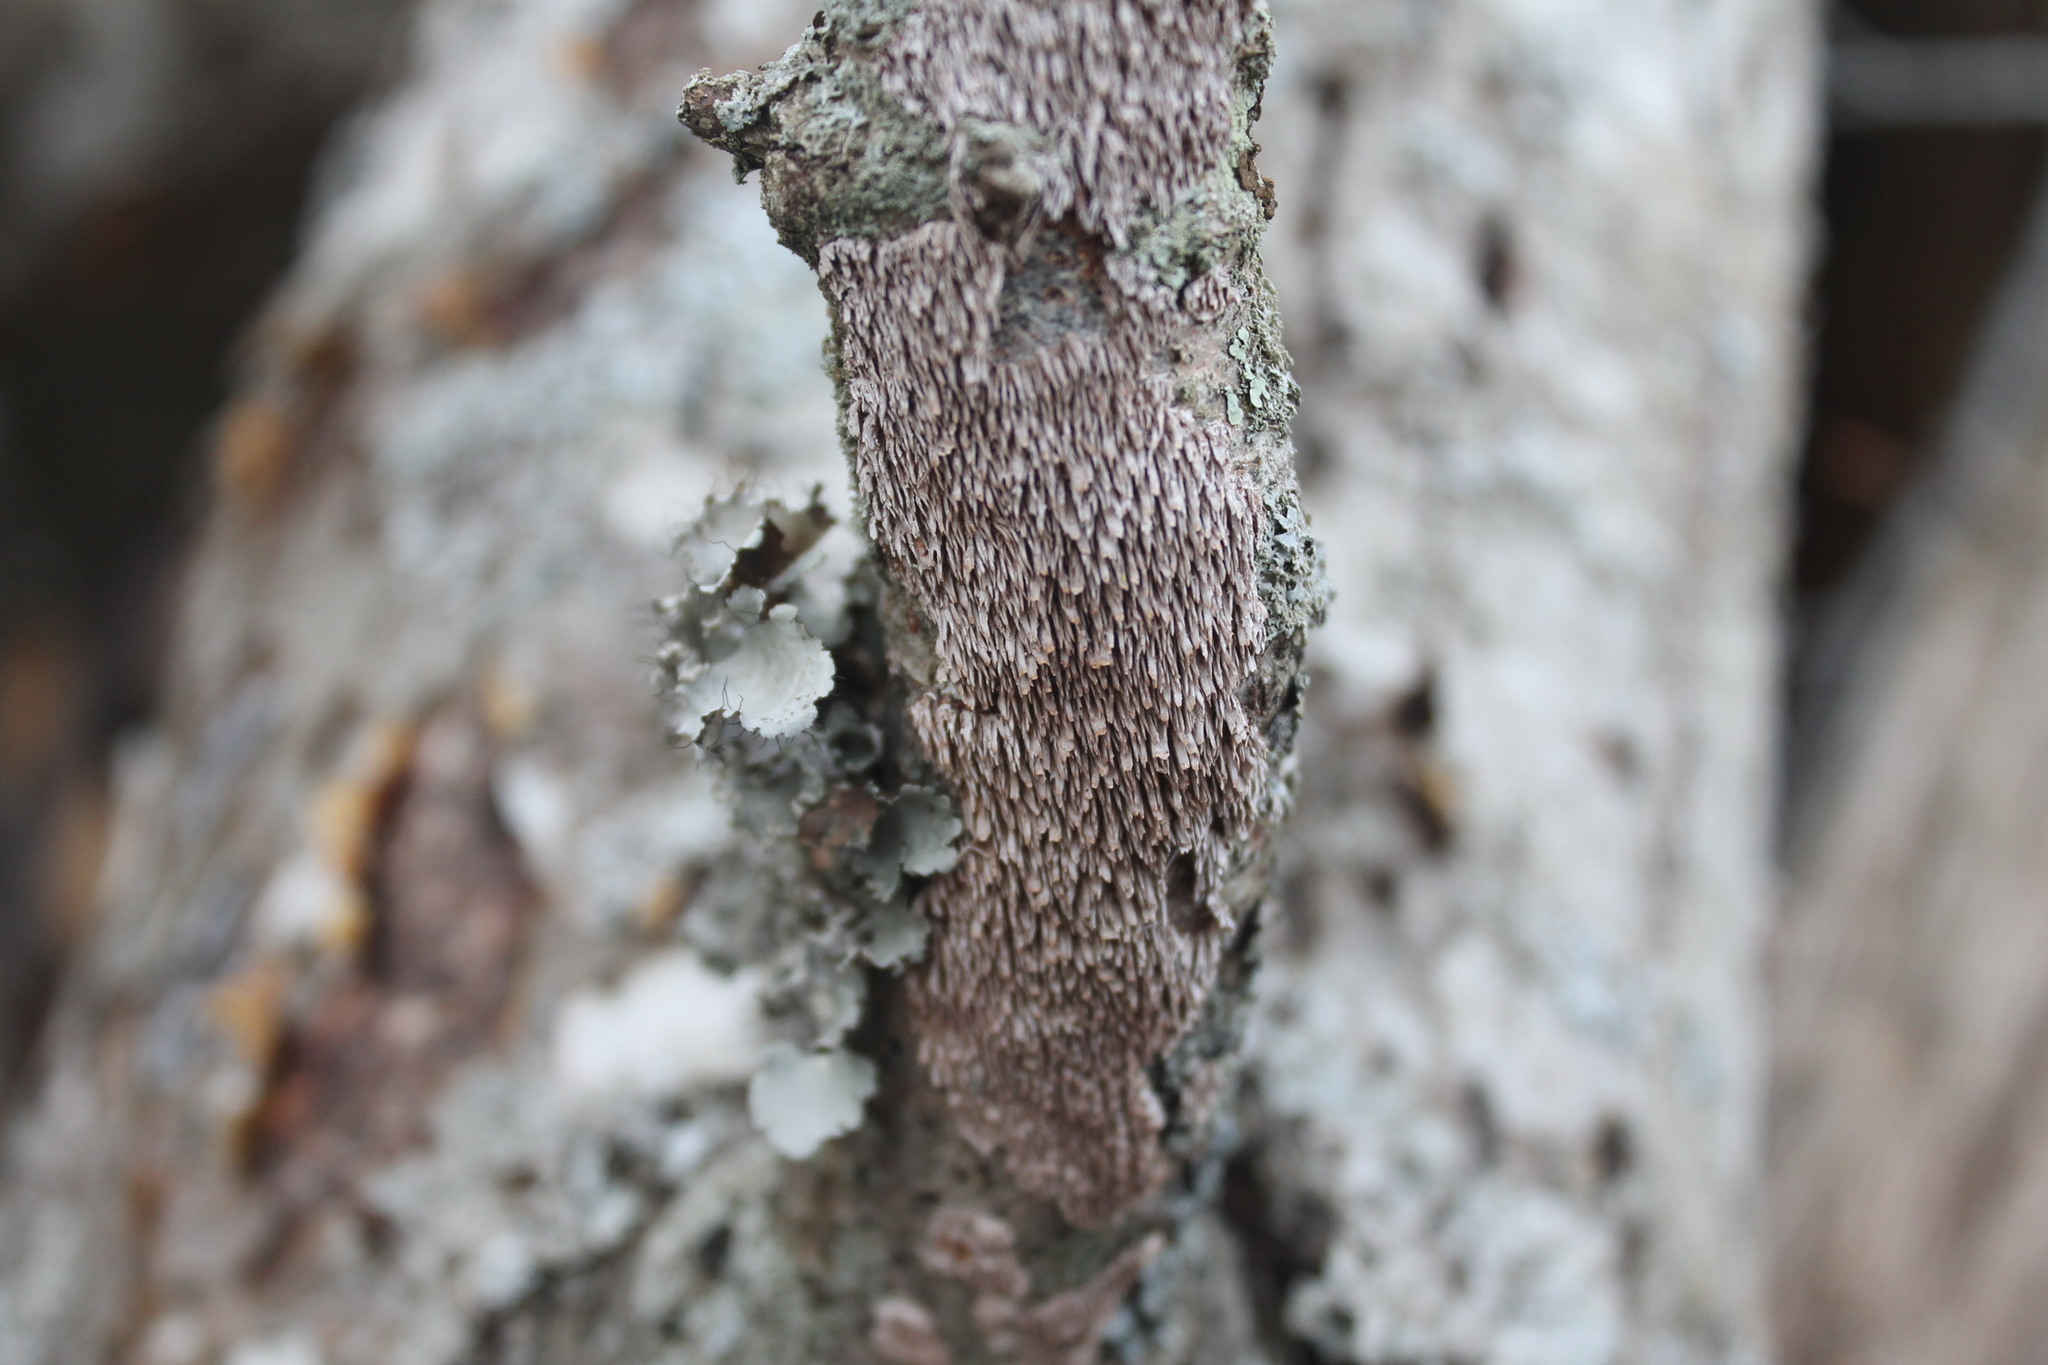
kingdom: Fungi
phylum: Basidiomycota
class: Agaricomycetes
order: Hymenochaetales
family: Hymenochaetaceae
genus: Hydnoporia
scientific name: Hydnoporia olivacea
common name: Brown-toothed crust fungus
